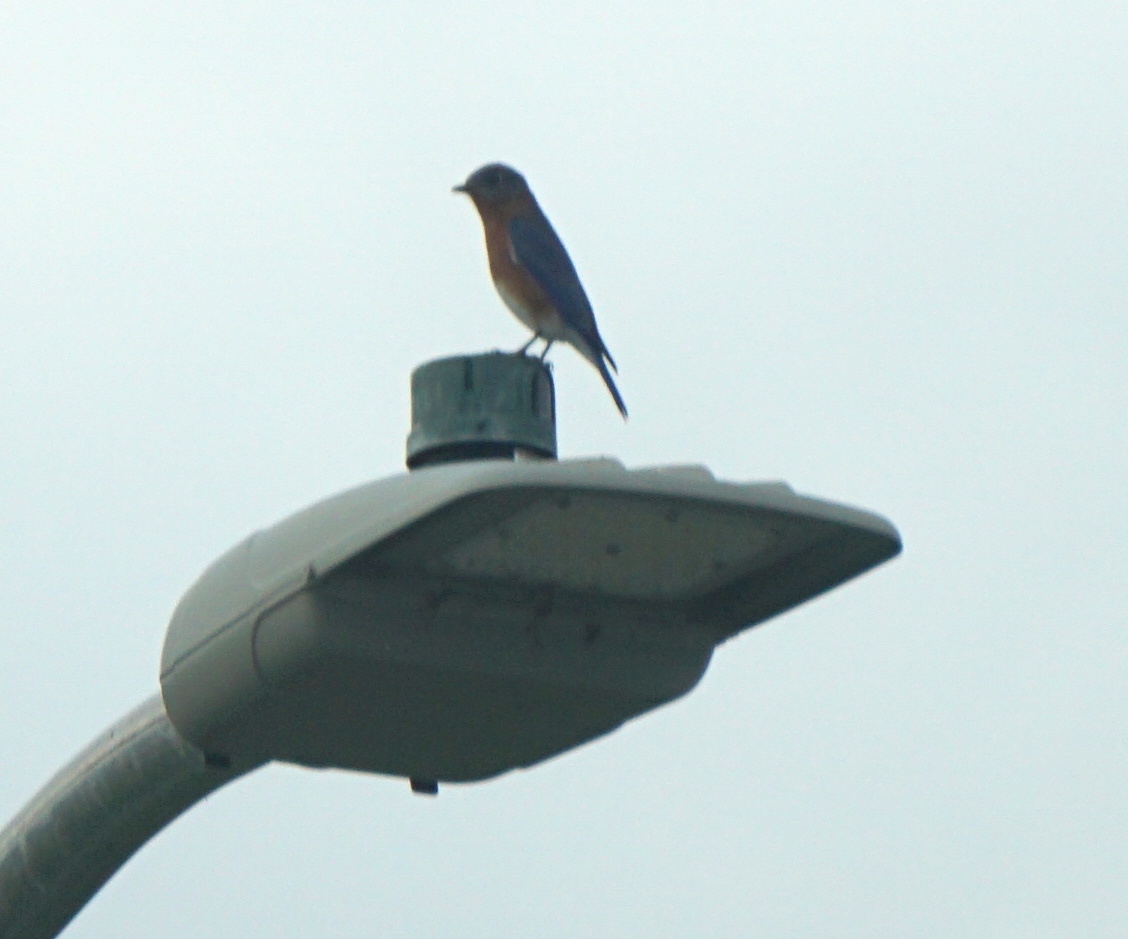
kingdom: Animalia
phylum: Chordata
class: Aves
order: Passeriformes
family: Turdidae
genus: Sialia
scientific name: Sialia sialis
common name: Eastern bluebird
